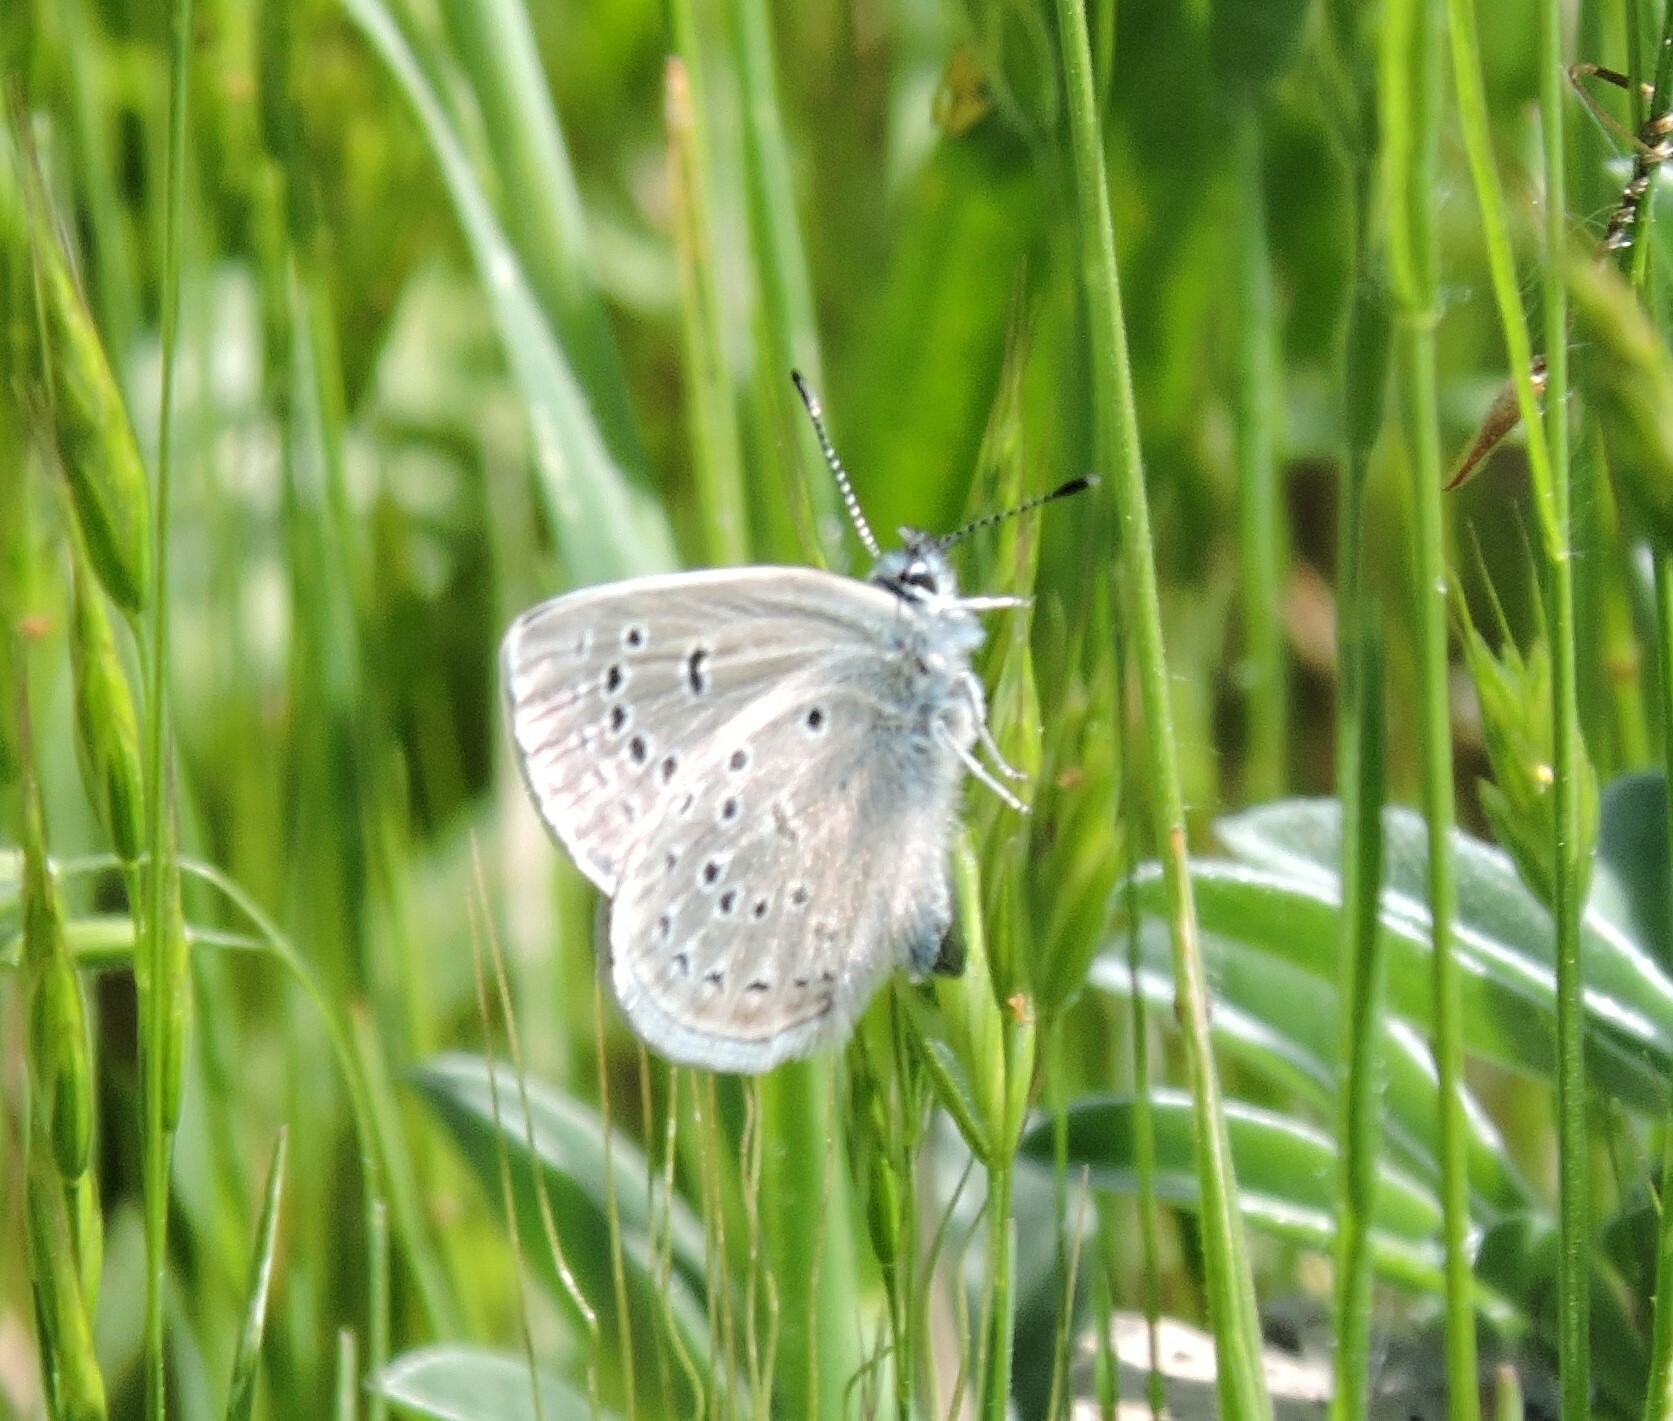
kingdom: Animalia
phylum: Arthropoda
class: Insecta
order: Lepidoptera
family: Lycaenidae
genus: Icaricia
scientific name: Icaricia icarioides
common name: Boisduval's blue
